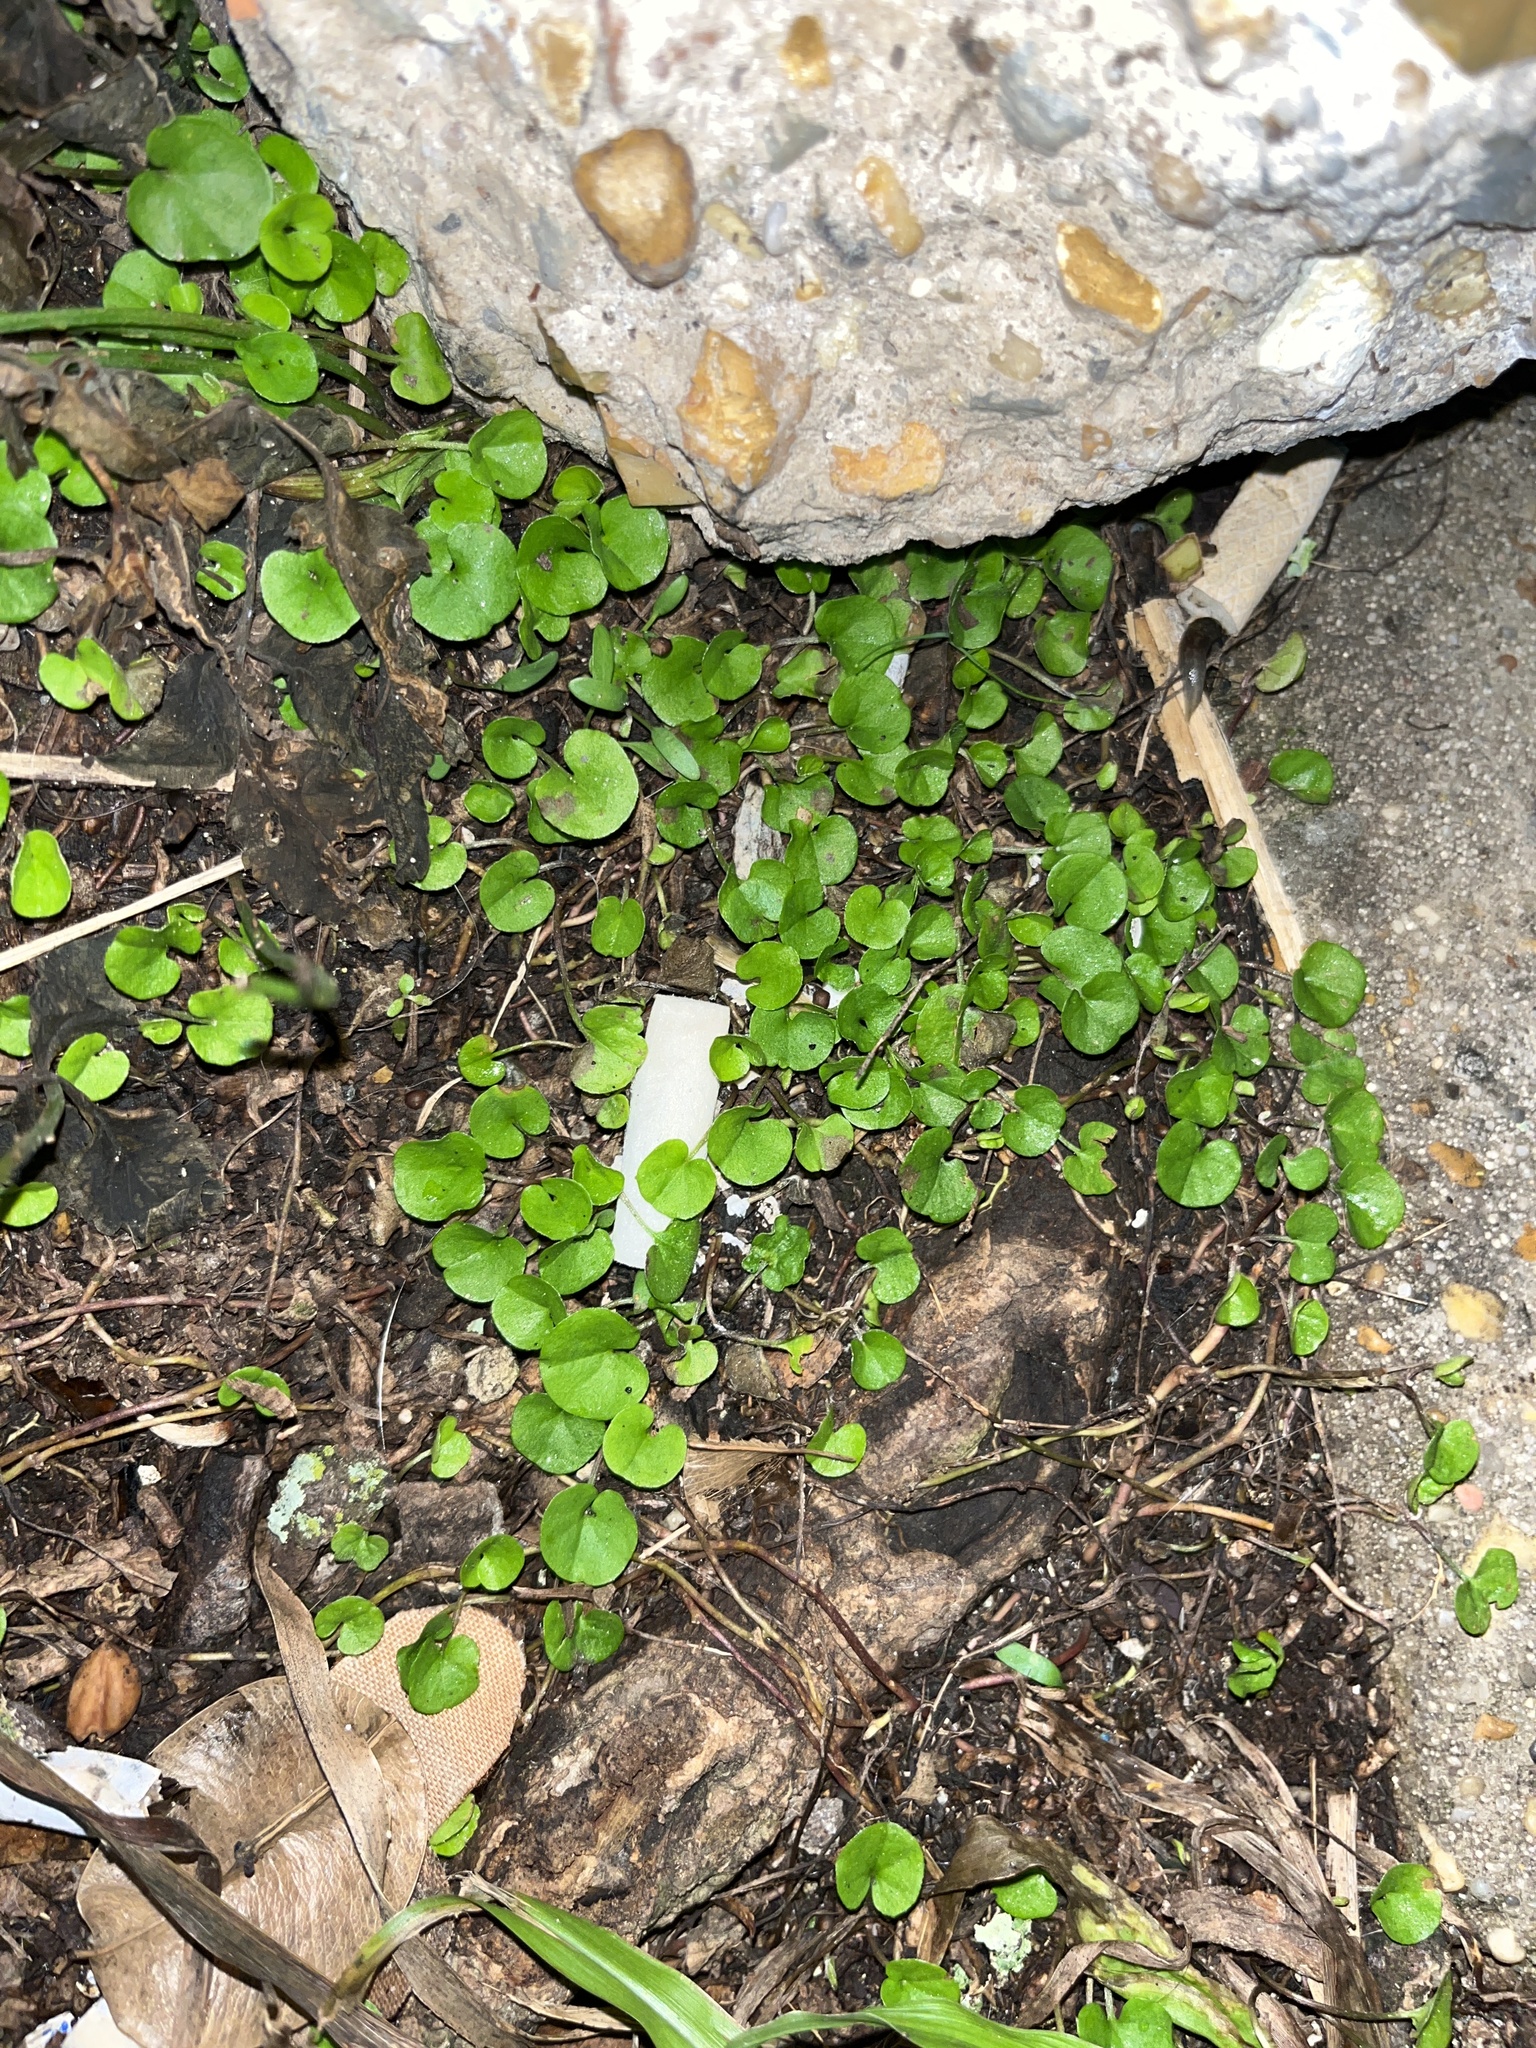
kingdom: Plantae
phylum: Tracheophyta
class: Magnoliopsida
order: Solanales
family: Convolvulaceae
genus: Dichondra
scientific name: Dichondra carolinensis
